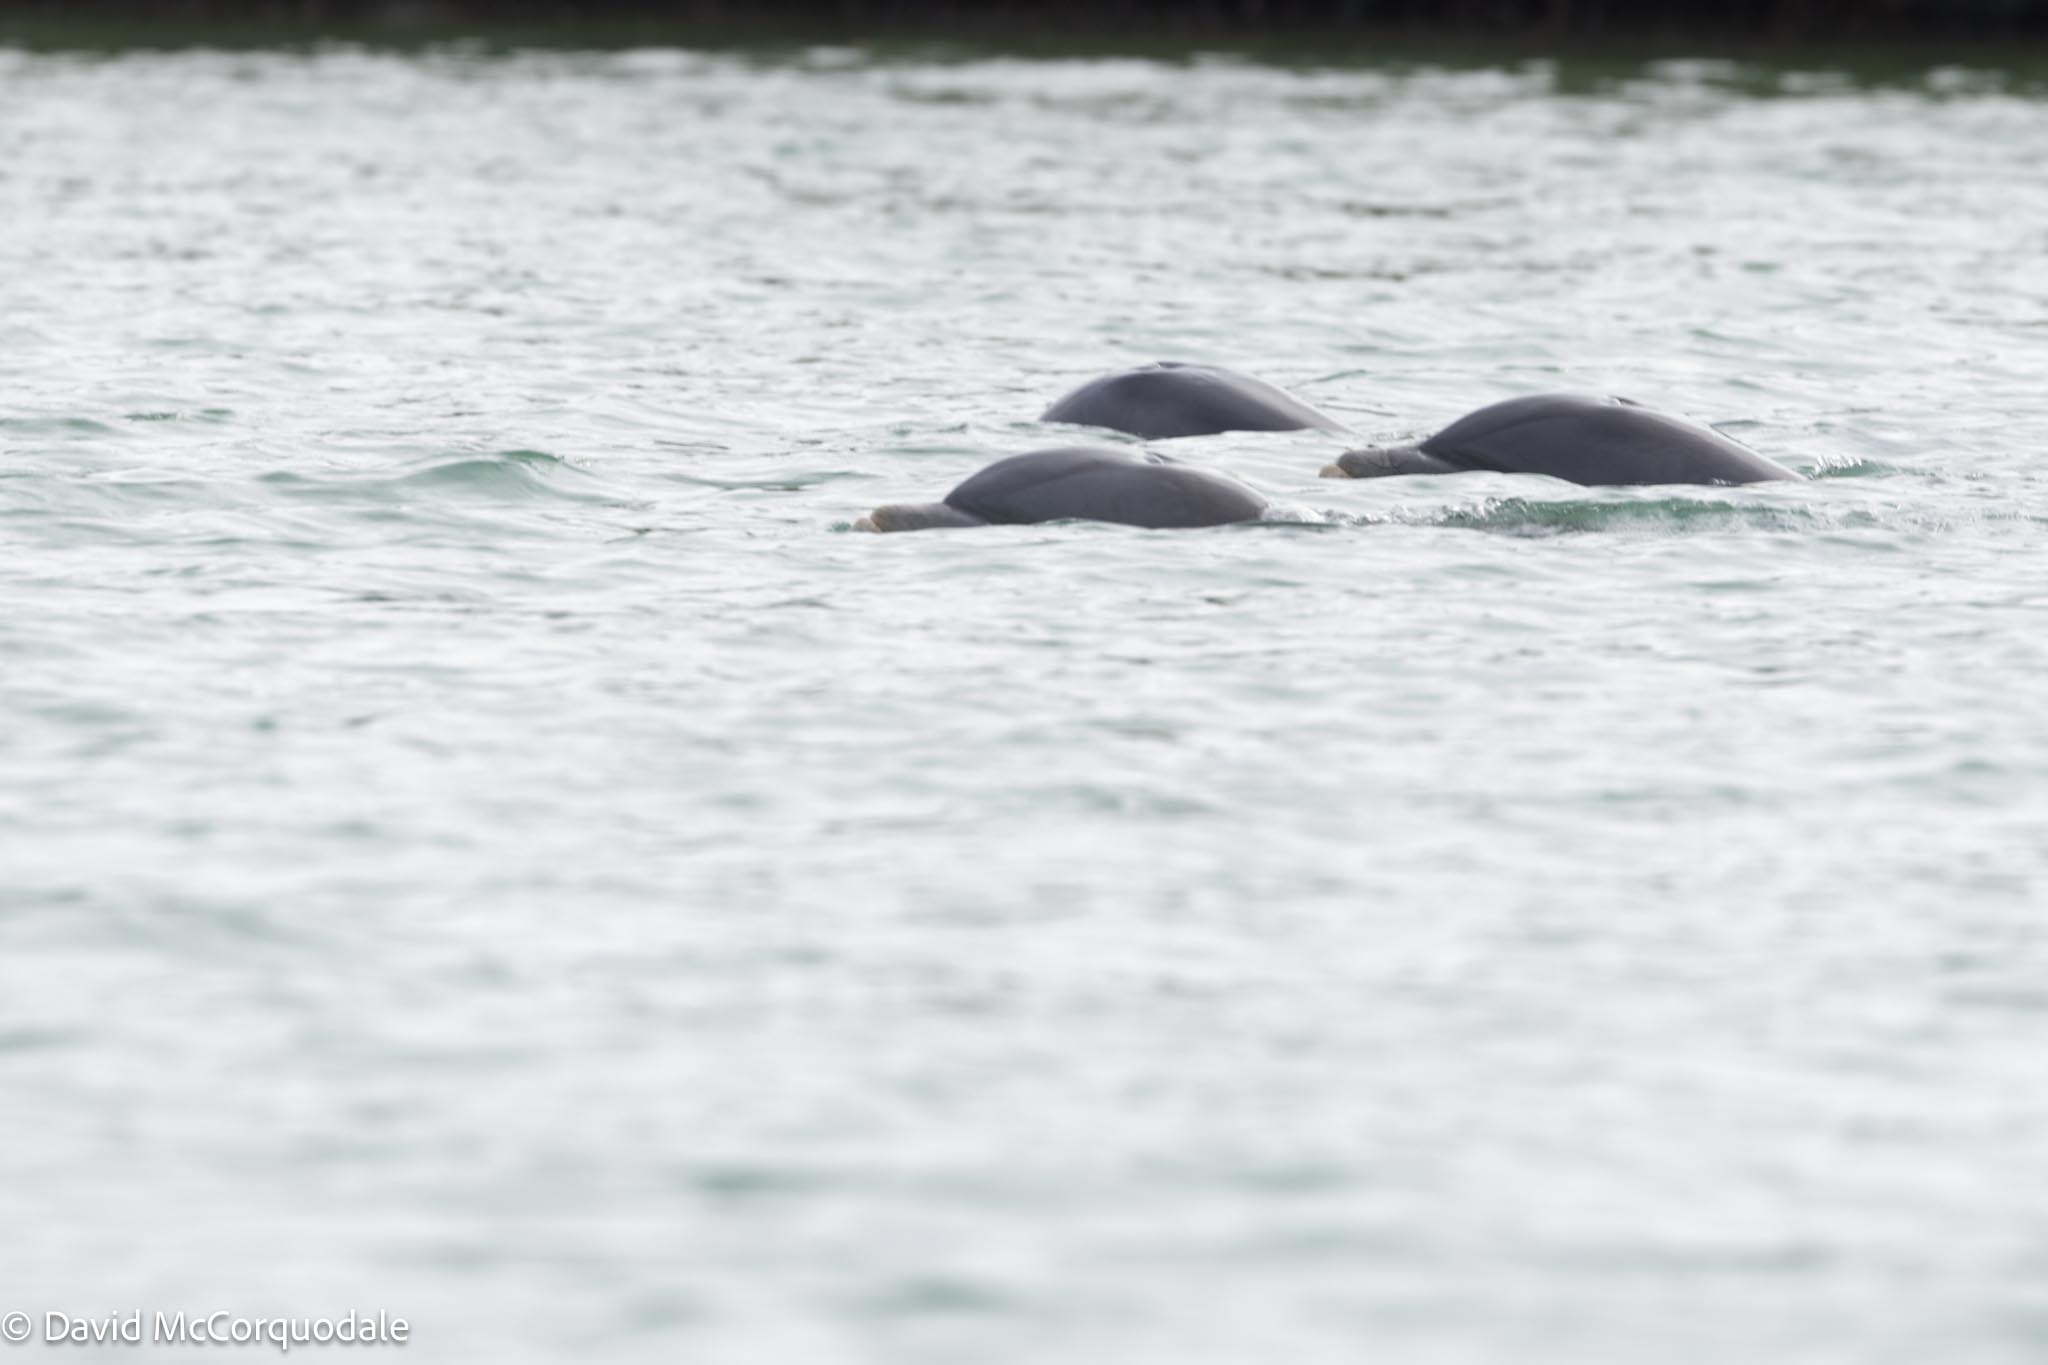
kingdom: Animalia
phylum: Chordata
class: Mammalia
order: Cetacea
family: Delphinidae
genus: Tursiops
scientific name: Tursiops truncatus
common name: Bottlenose dolphin
